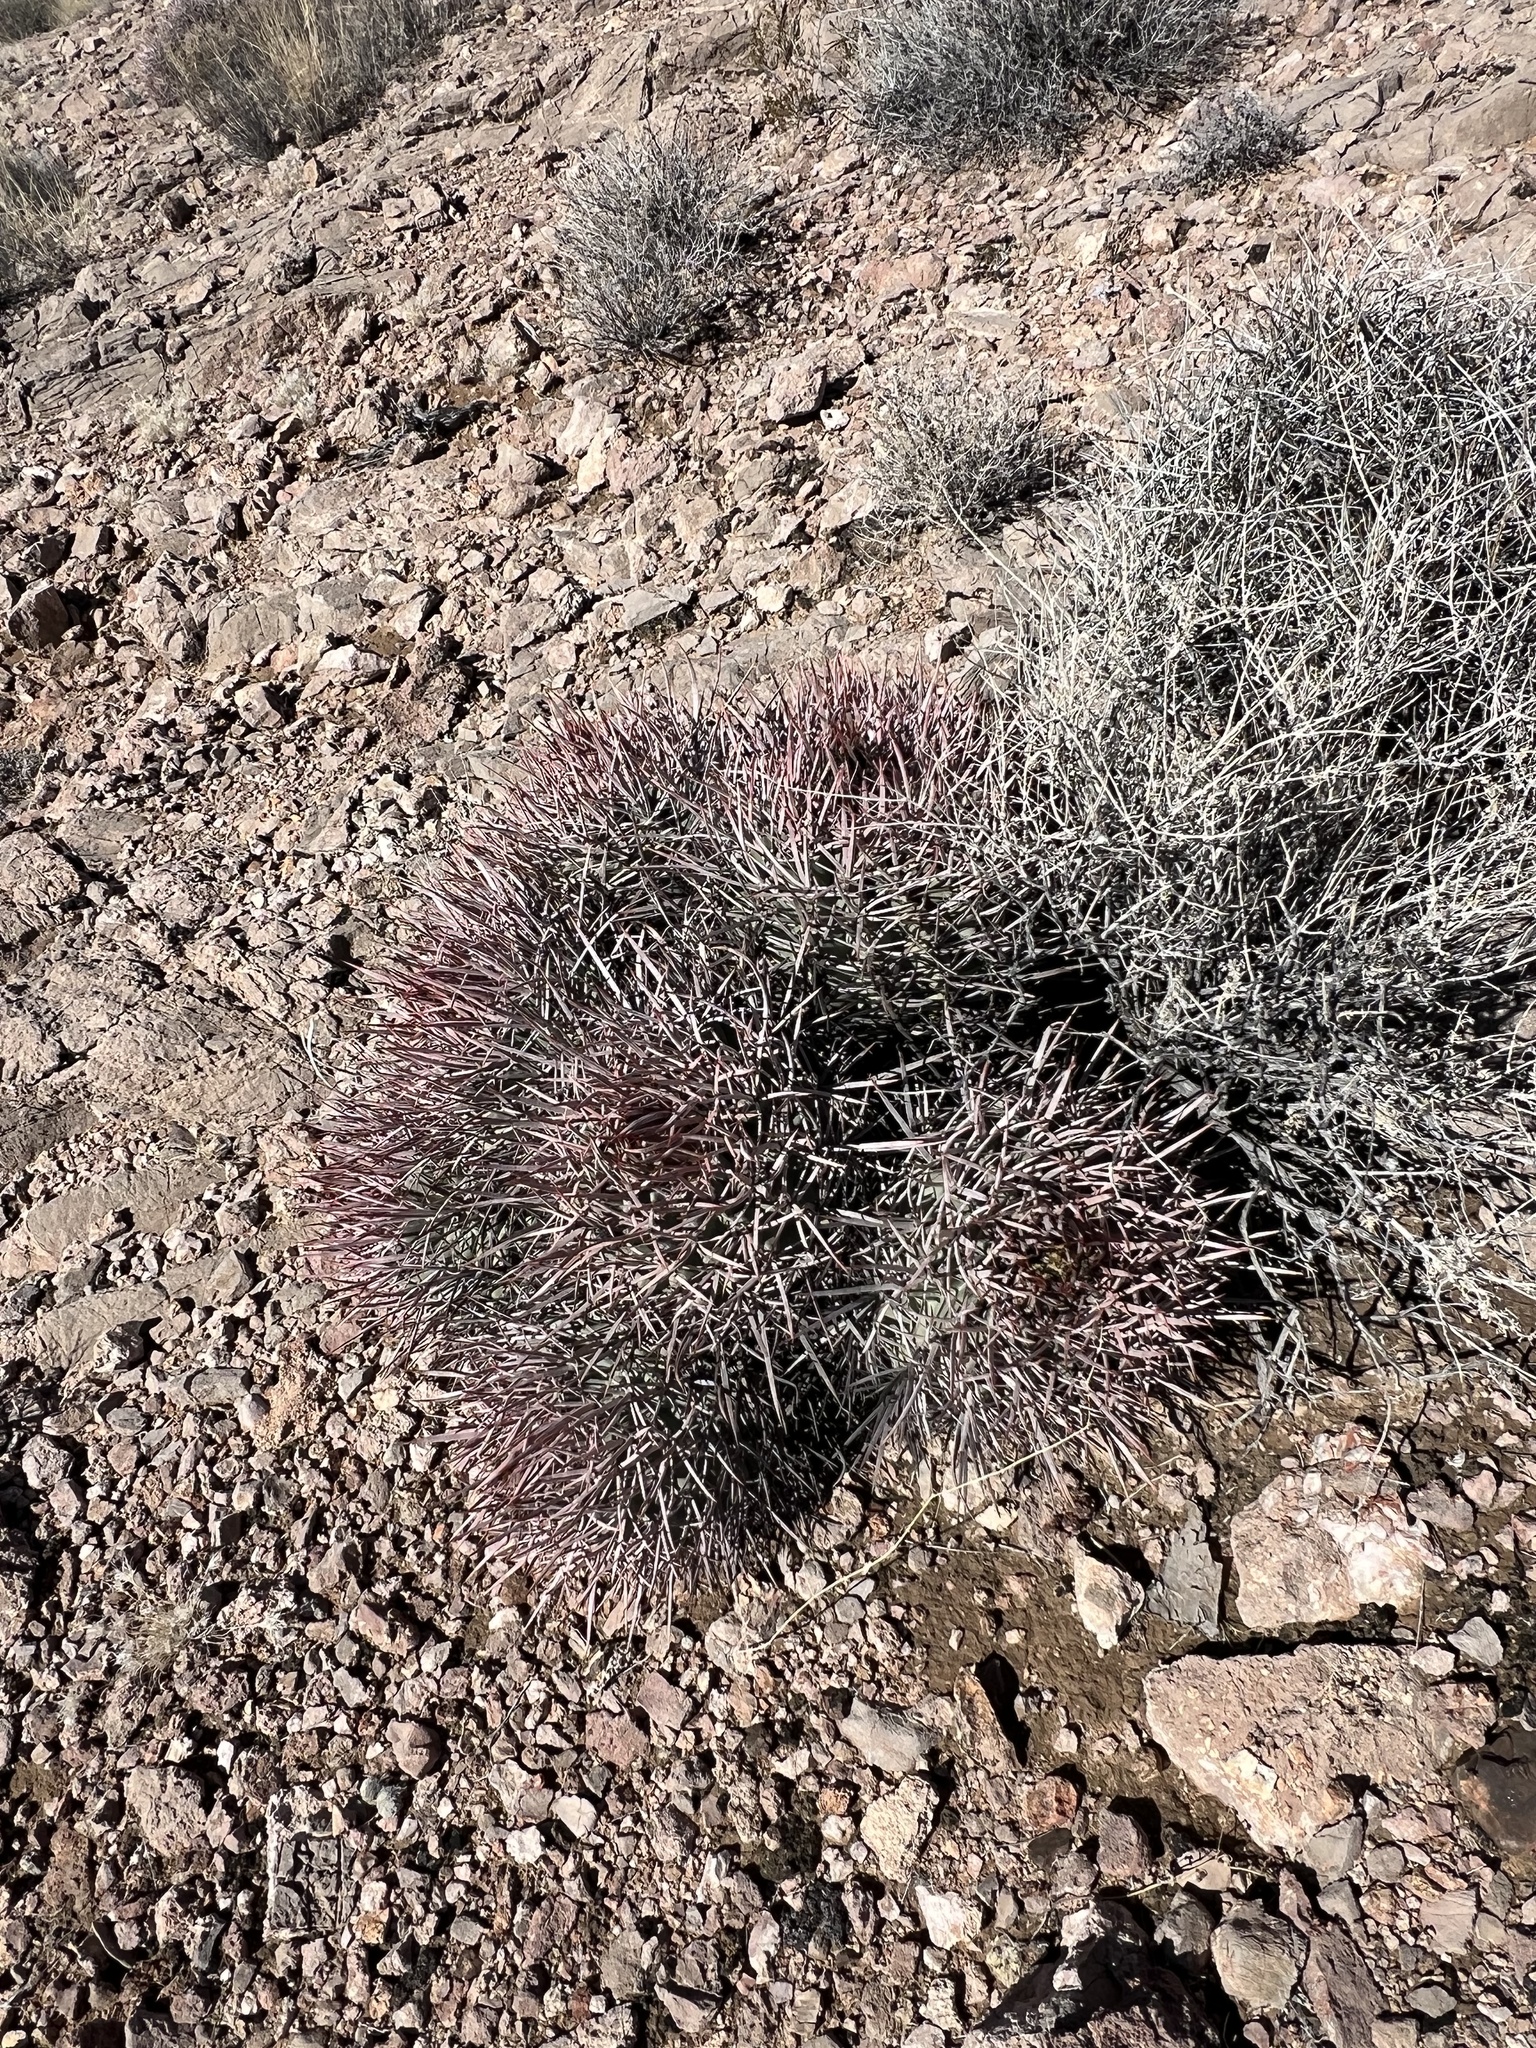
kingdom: Plantae
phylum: Tracheophyta
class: Magnoliopsida
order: Caryophyllales
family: Cactaceae
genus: Echinocactus
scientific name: Echinocactus polycephalus
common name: Cottontop cactus
